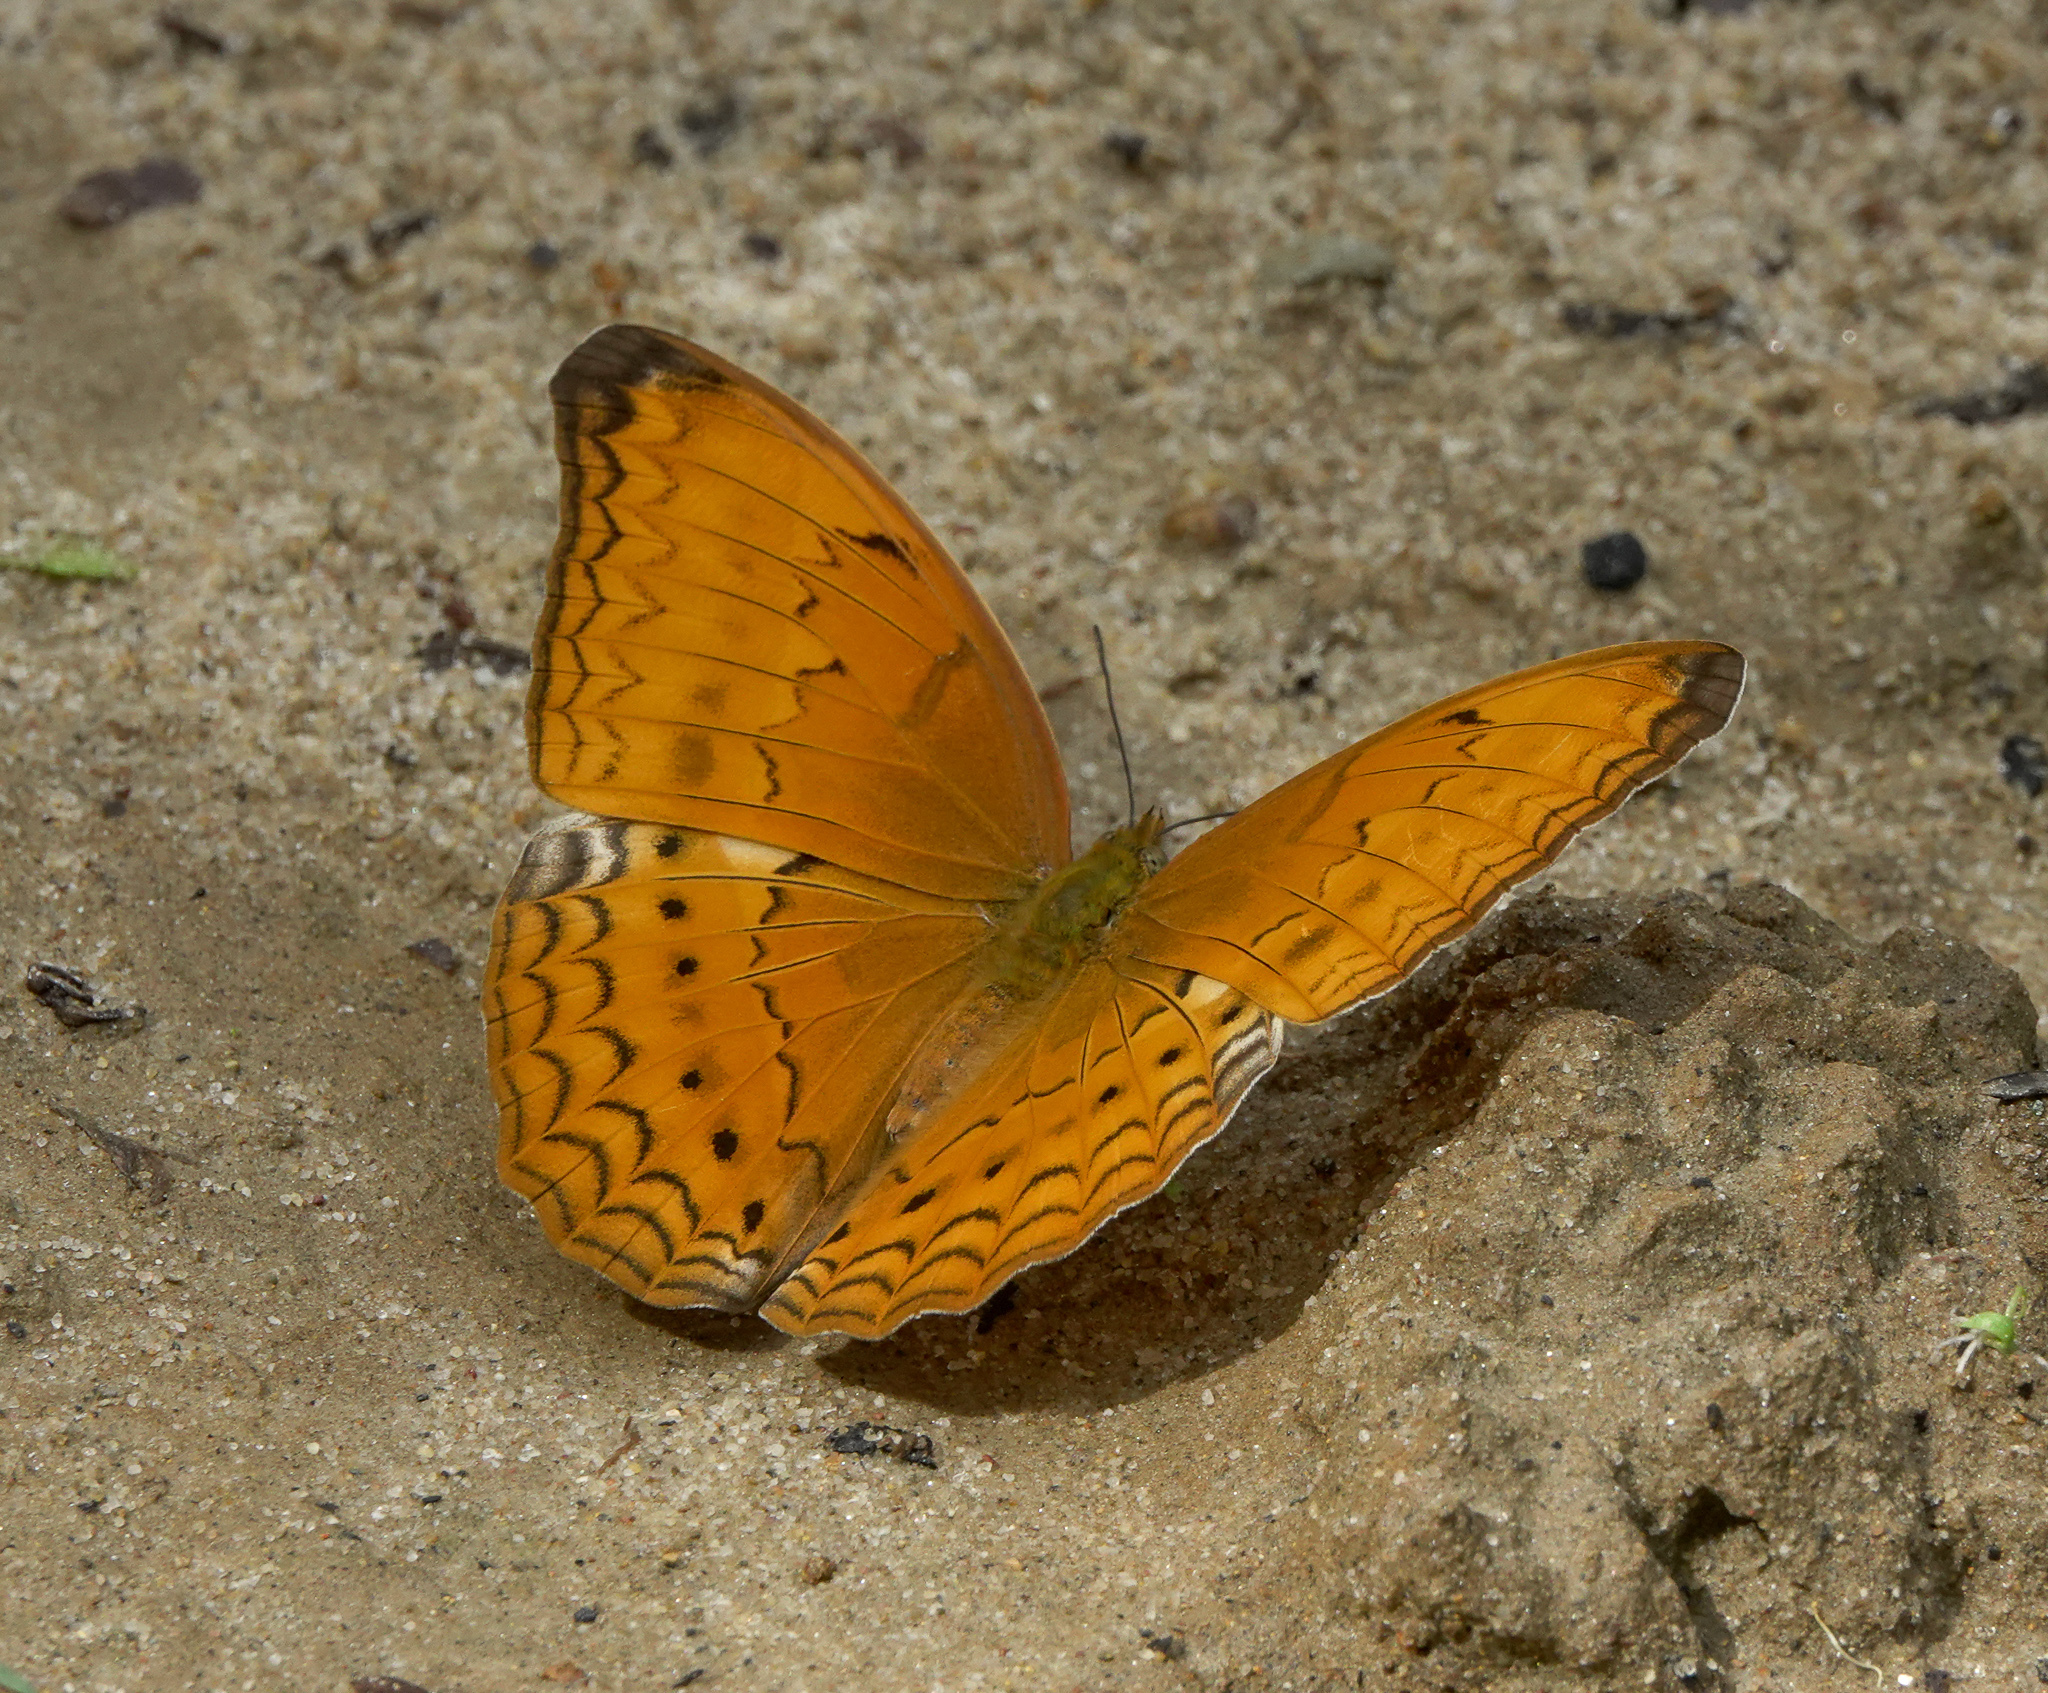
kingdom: Animalia
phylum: Arthropoda
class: Insecta
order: Lepidoptera
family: Nymphalidae
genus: Cirrochroa
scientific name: Cirrochroa aoris
